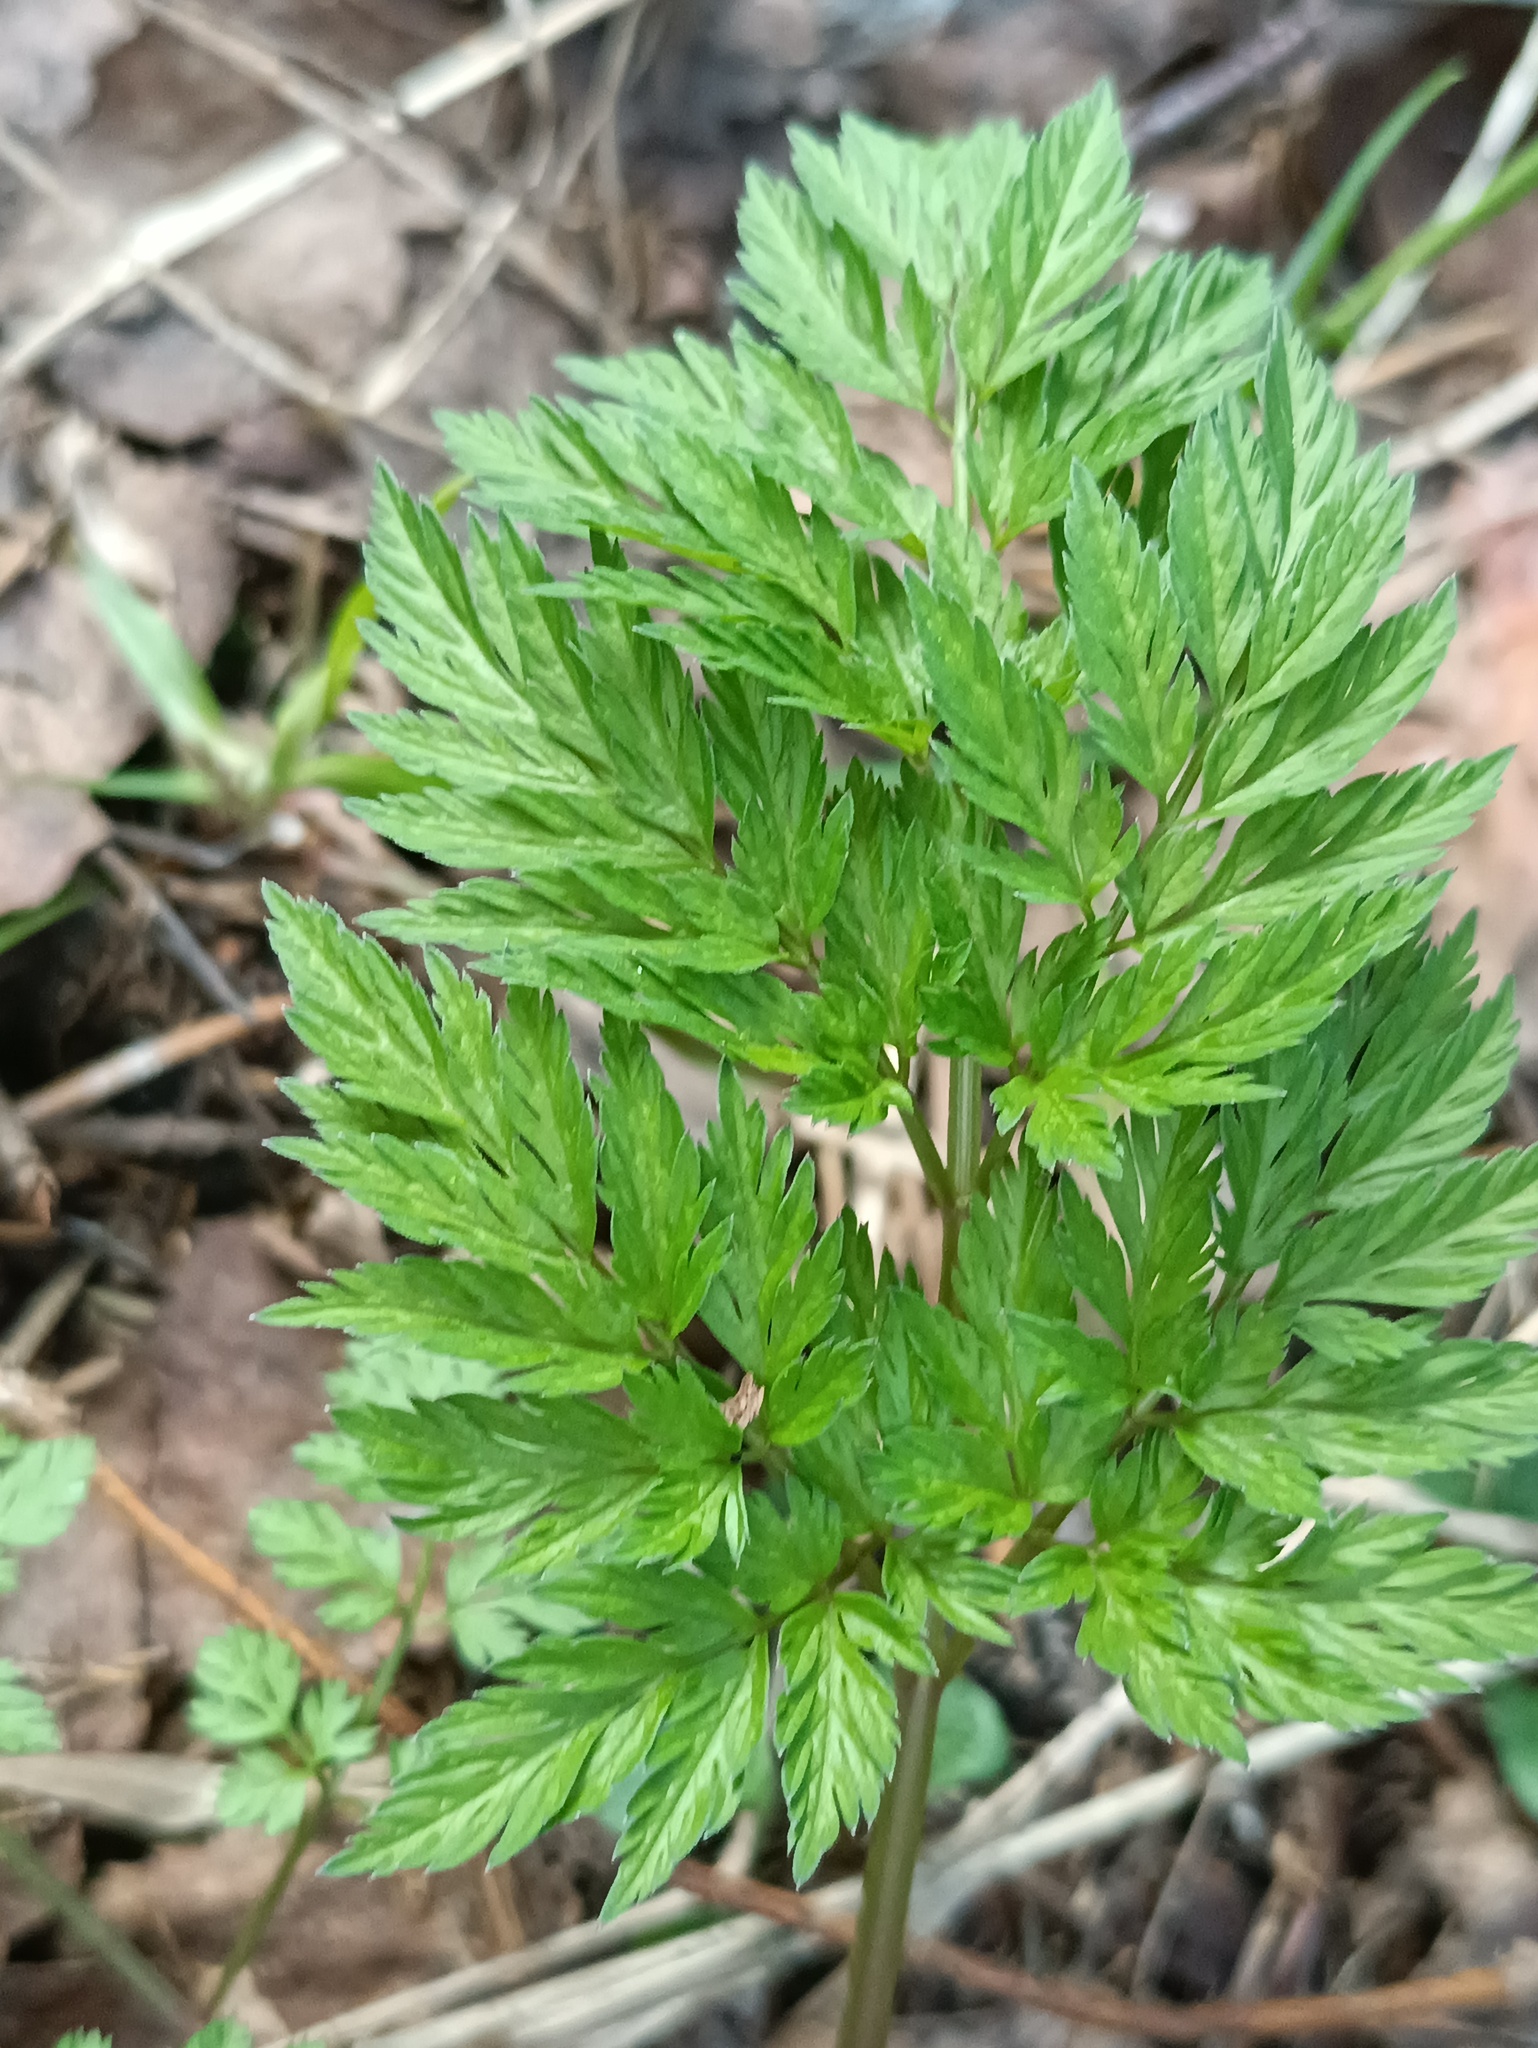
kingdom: Plantae
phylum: Tracheophyta
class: Magnoliopsida
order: Apiales
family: Apiaceae
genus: Anthriscus
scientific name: Anthriscus sylvestris
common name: Cow parsley
